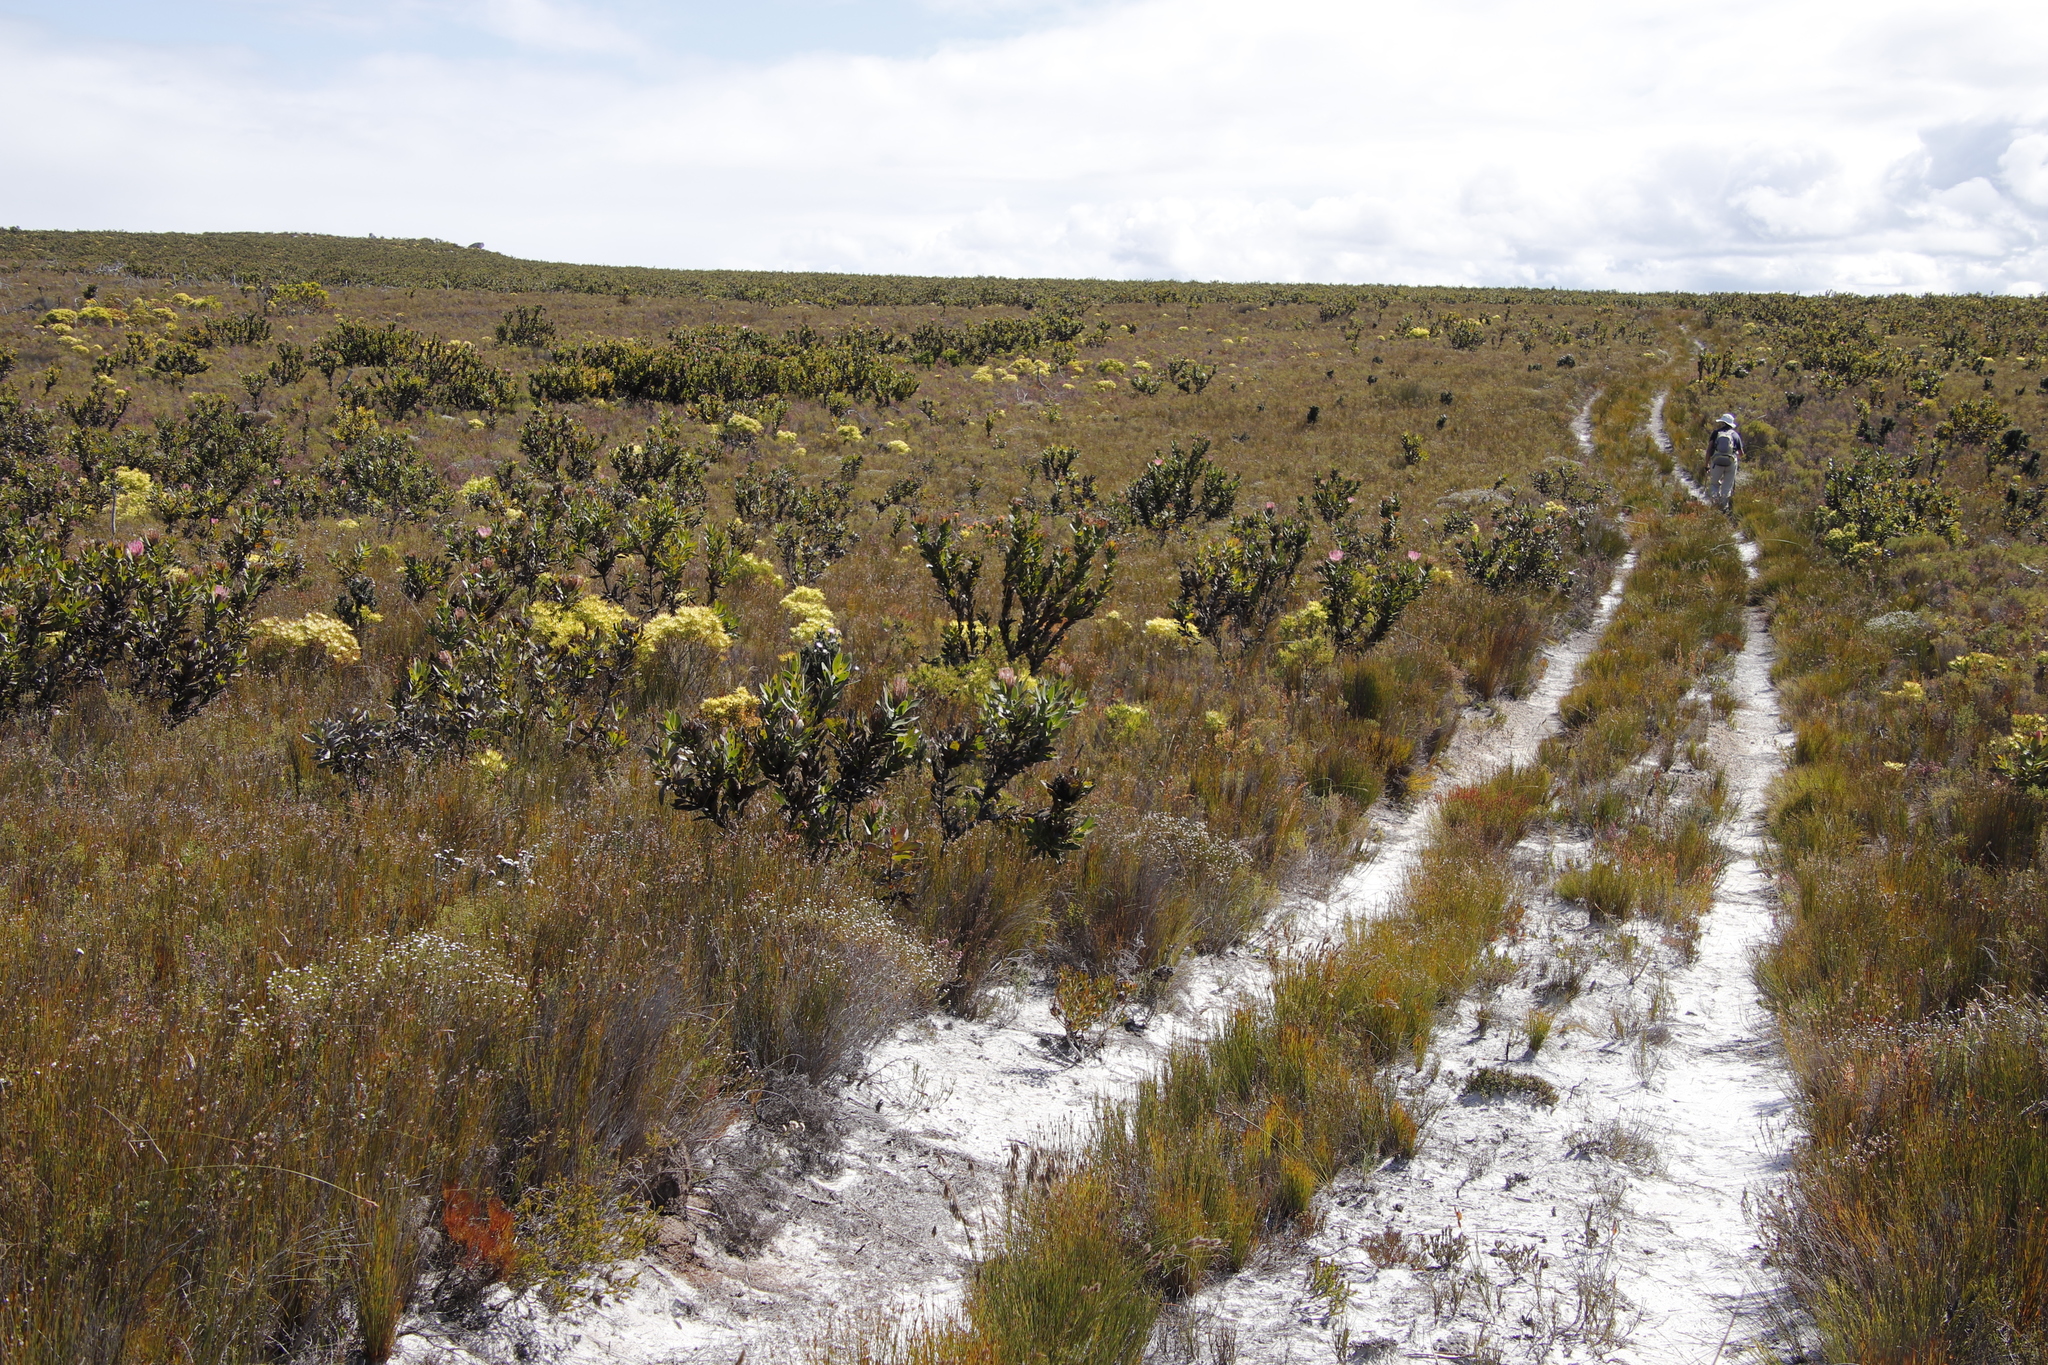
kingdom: Plantae
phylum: Tracheophyta
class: Magnoliopsida
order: Proteales
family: Proteaceae
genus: Protea
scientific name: Protea compacta
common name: Bot river protea
